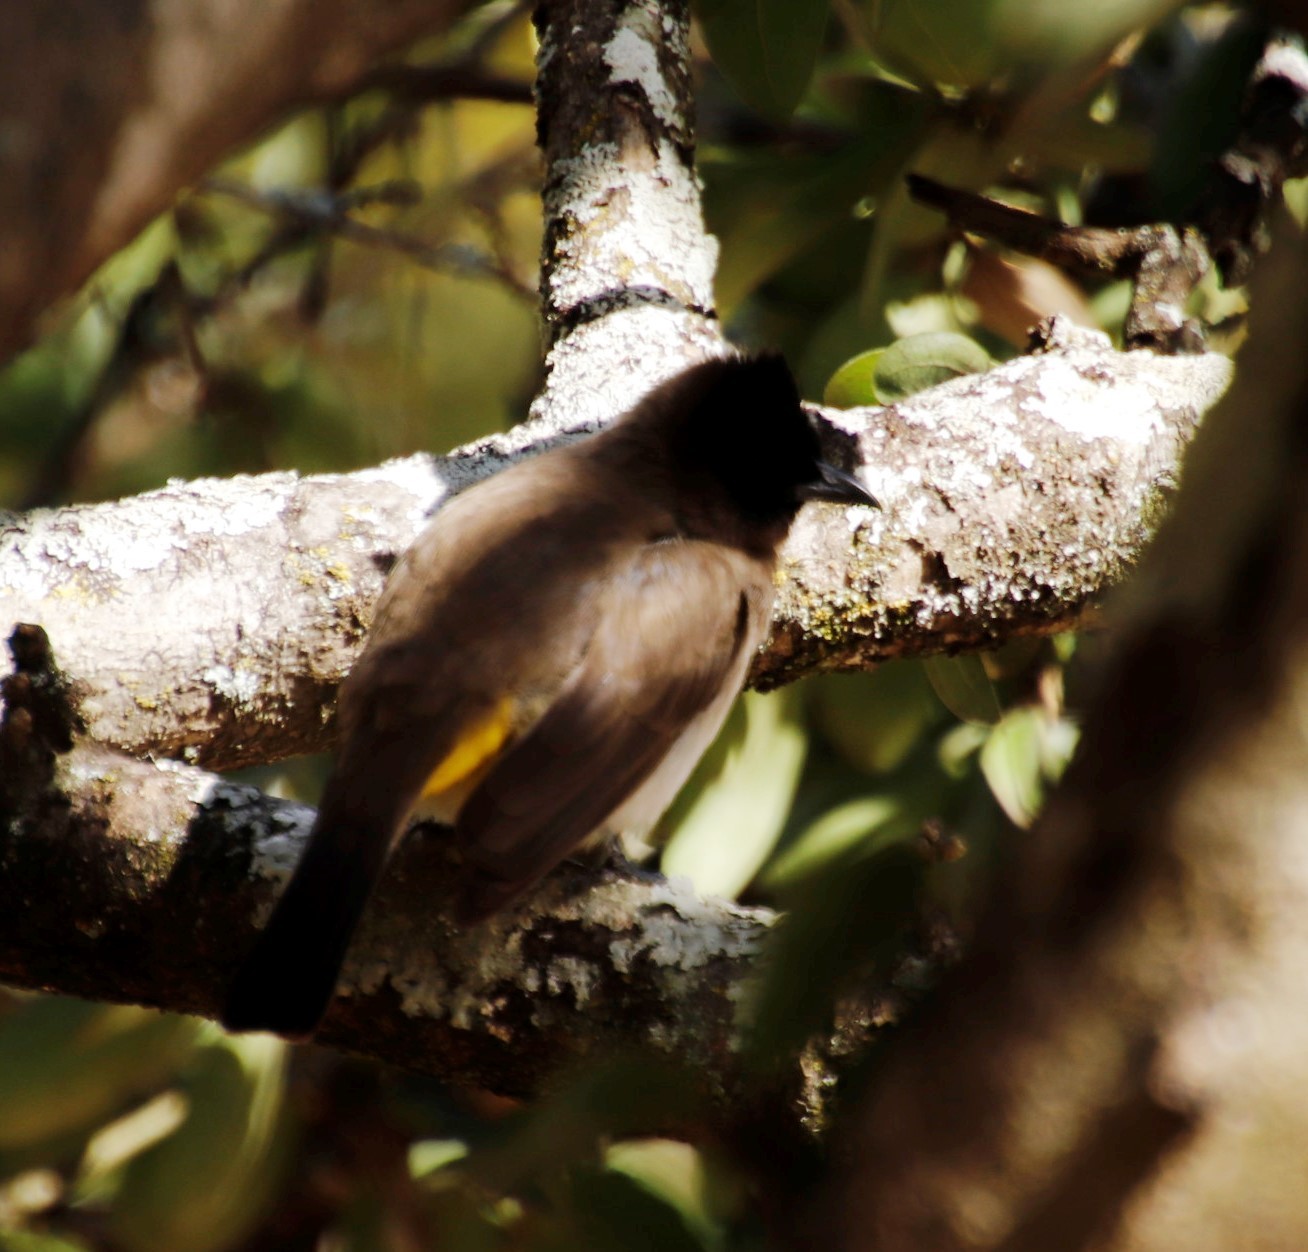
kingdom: Animalia
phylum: Chordata
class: Aves
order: Passeriformes
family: Pycnonotidae
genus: Pycnonotus
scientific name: Pycnonotus barbatus
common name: Common bulbul
